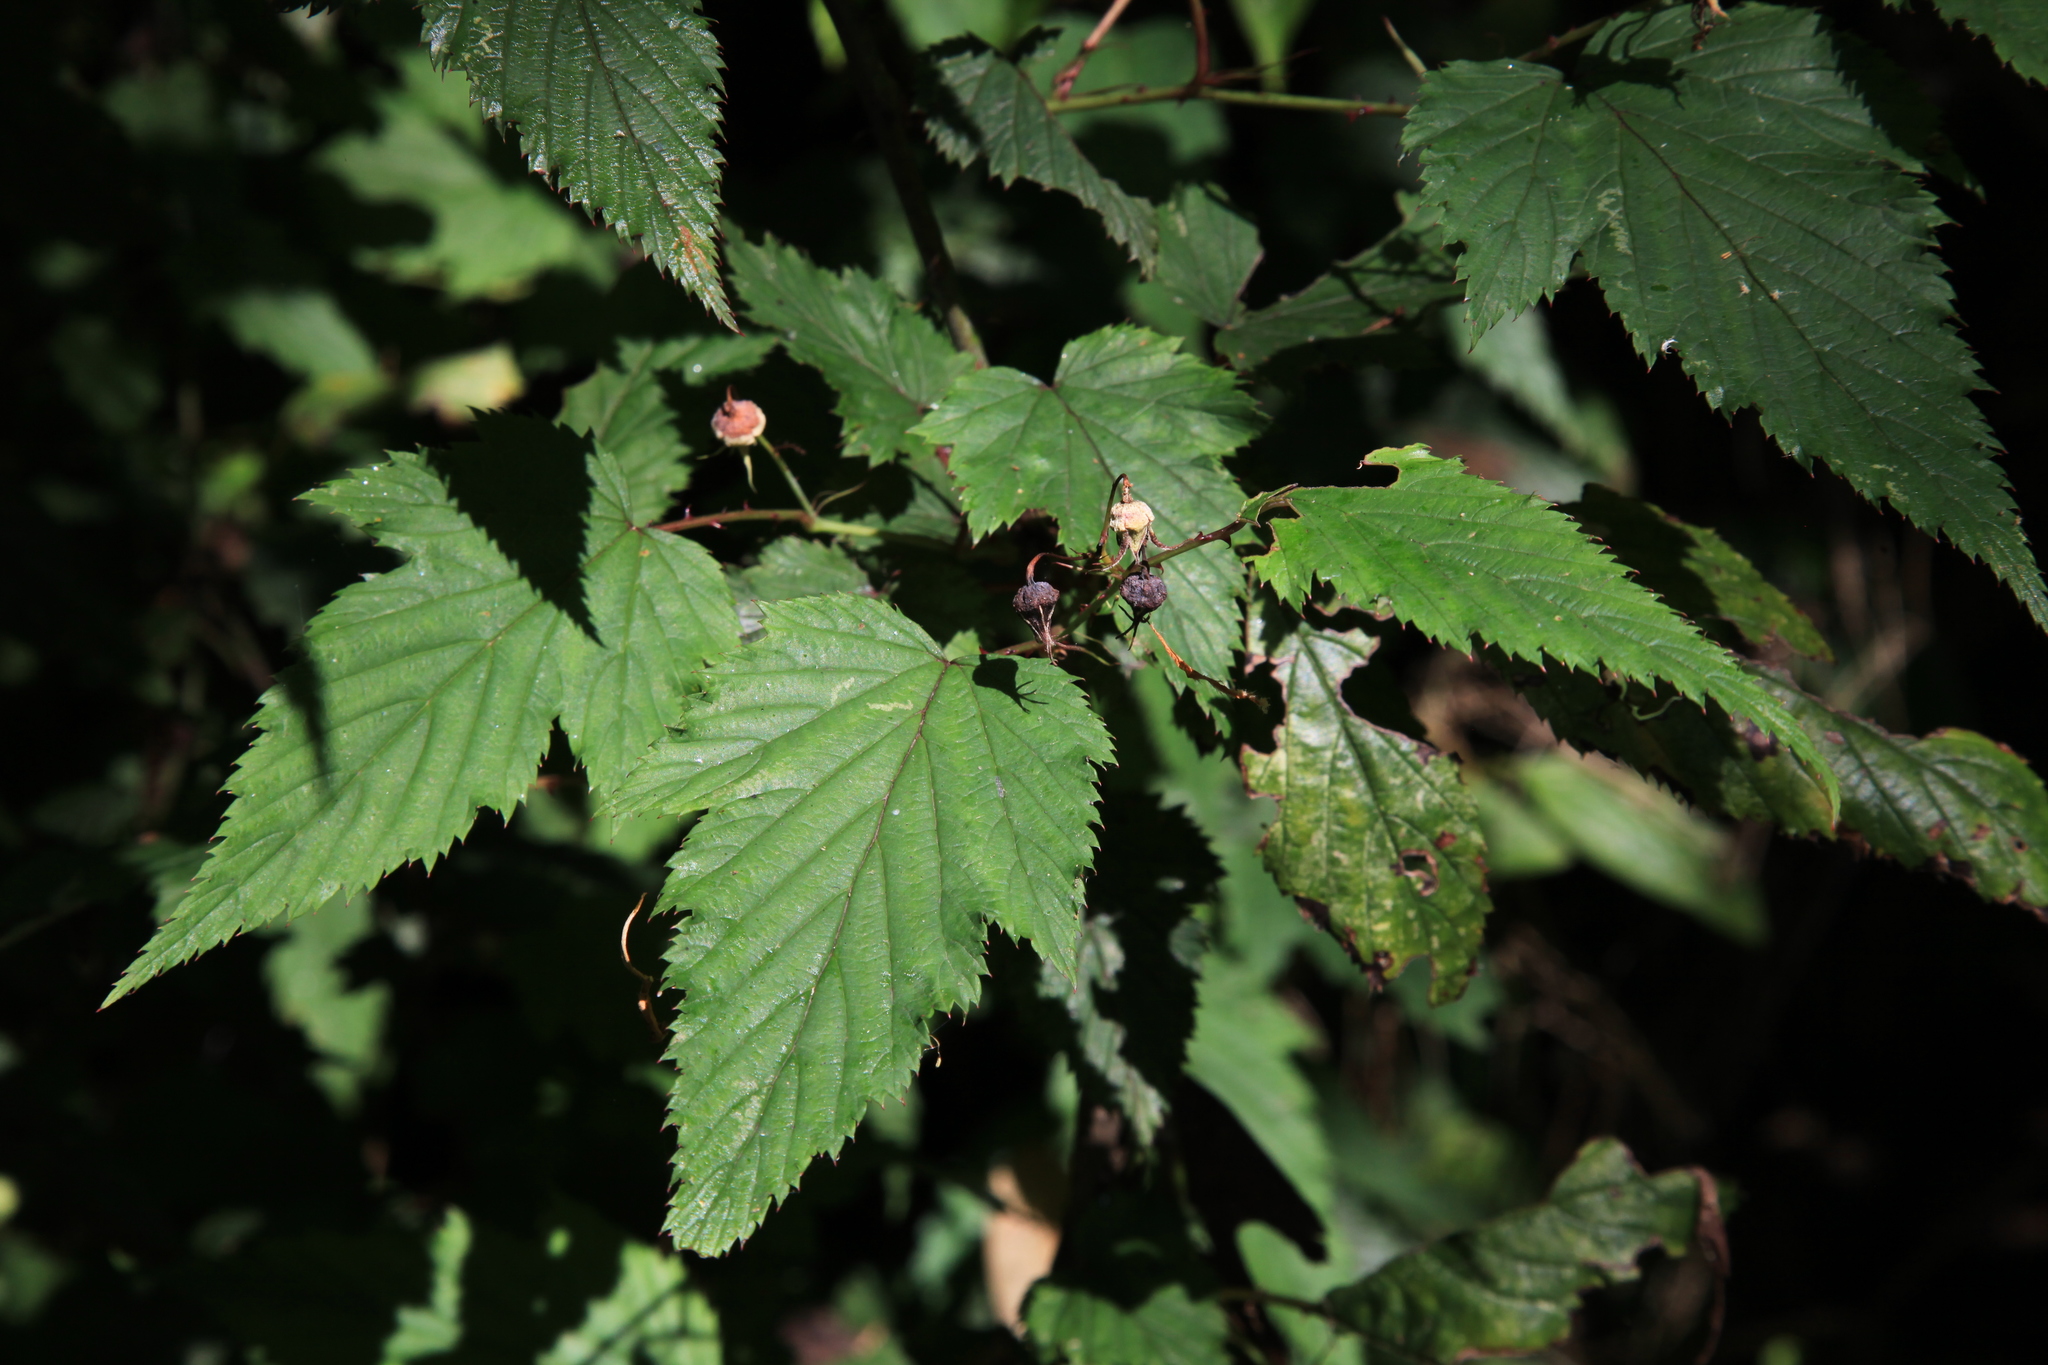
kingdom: Plantae
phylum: Tracheophyta
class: Magnoliopsida
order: Rosales
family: Rosaceae
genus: Rubus
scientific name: Rubus subcrataegifolius
